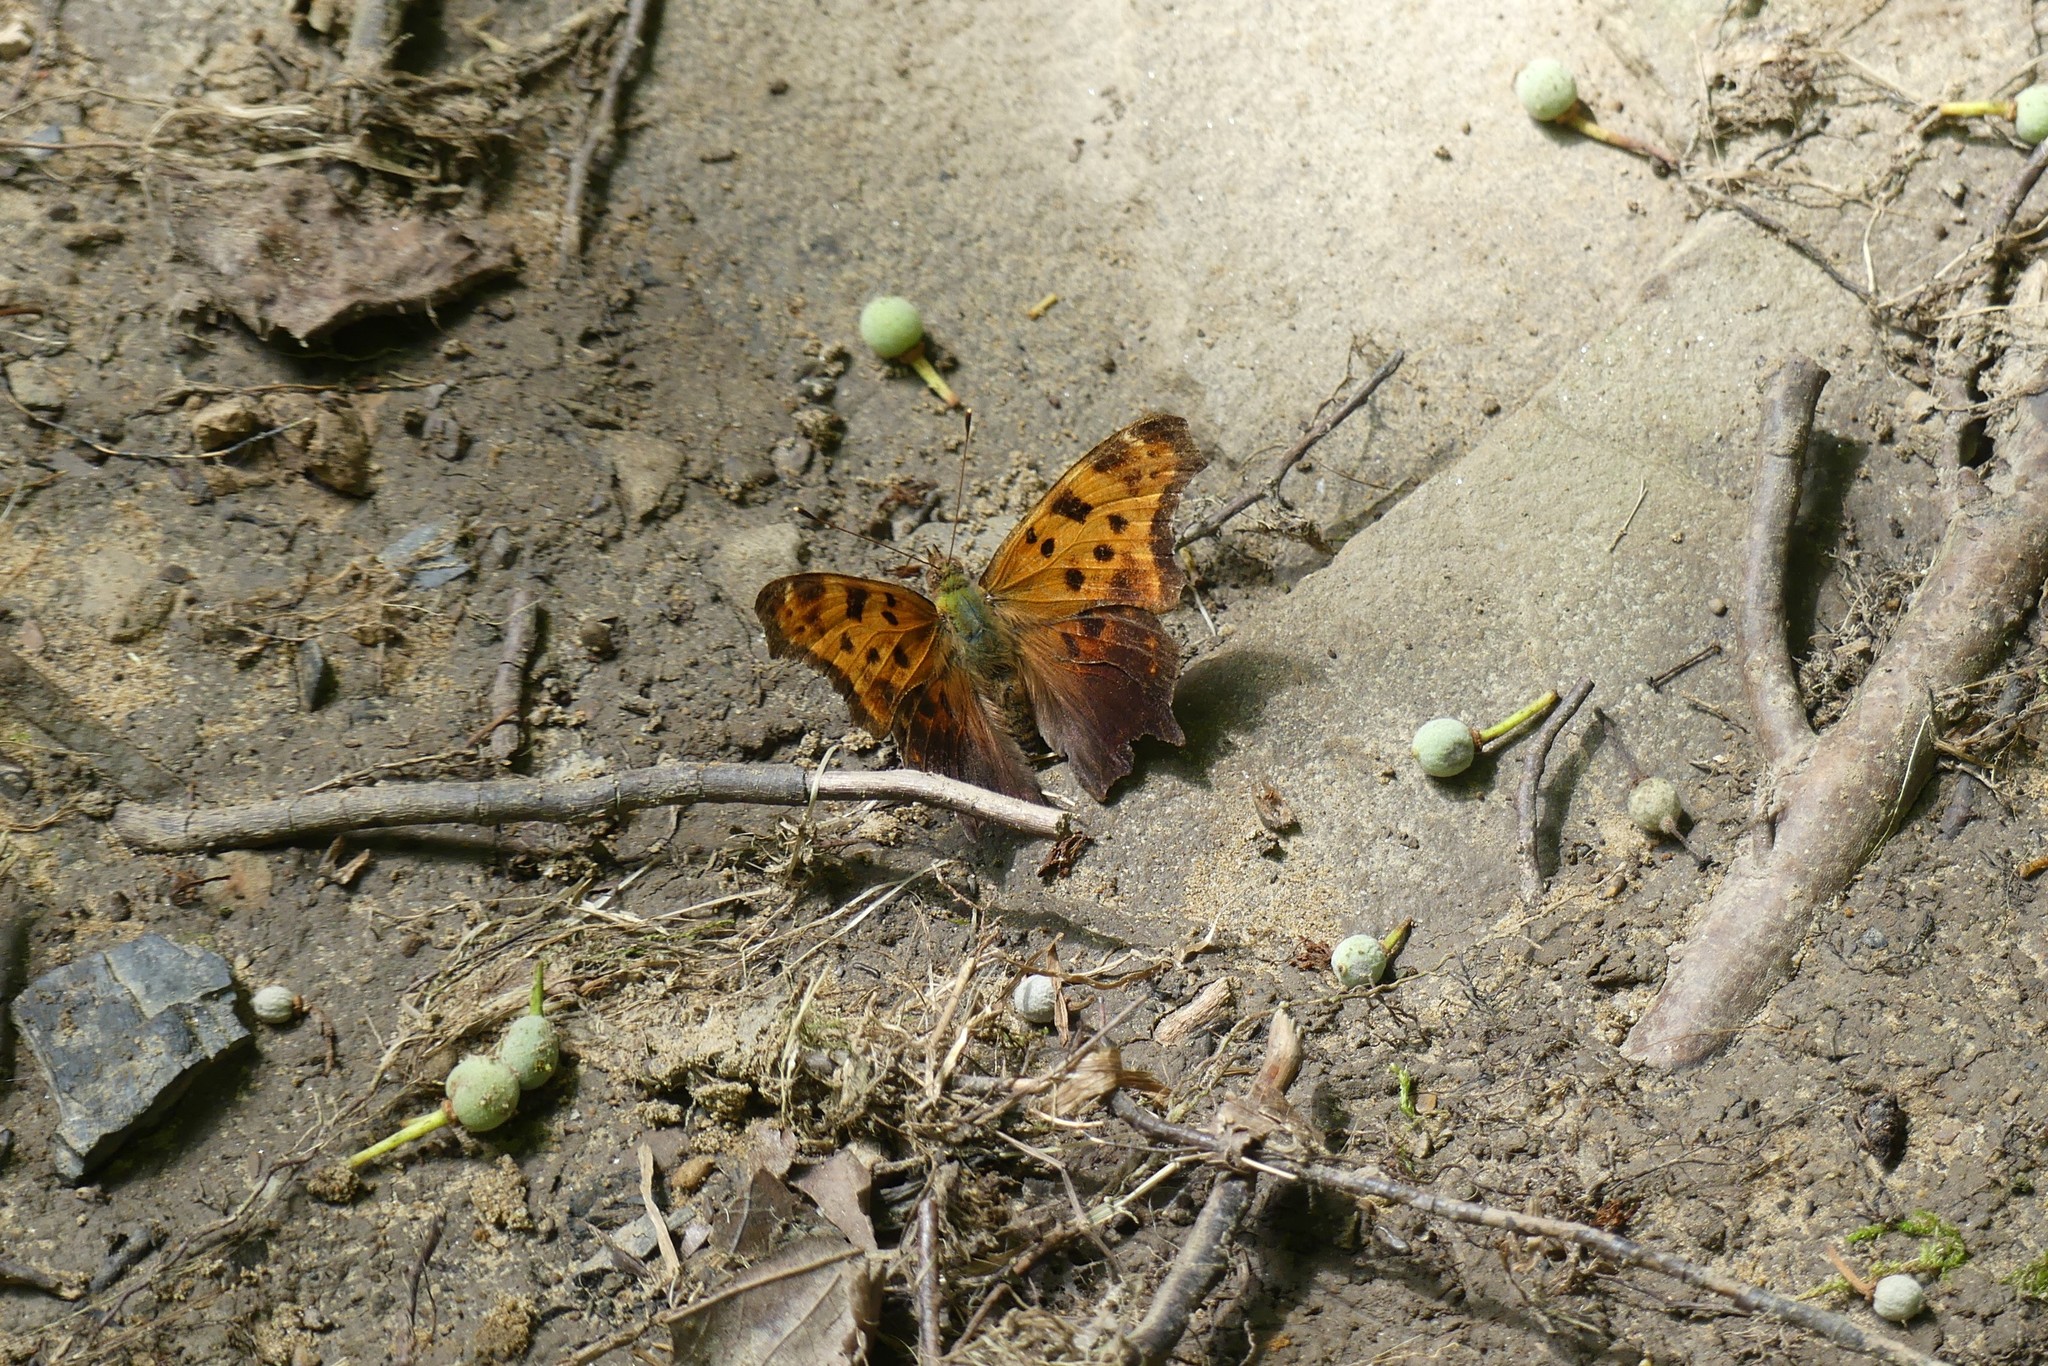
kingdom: Animalia
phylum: Arthropoda
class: Insecta
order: Lepidoptera
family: Nymphalidae
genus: Polygonia
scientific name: Polygonia comma
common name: Eastern comma
